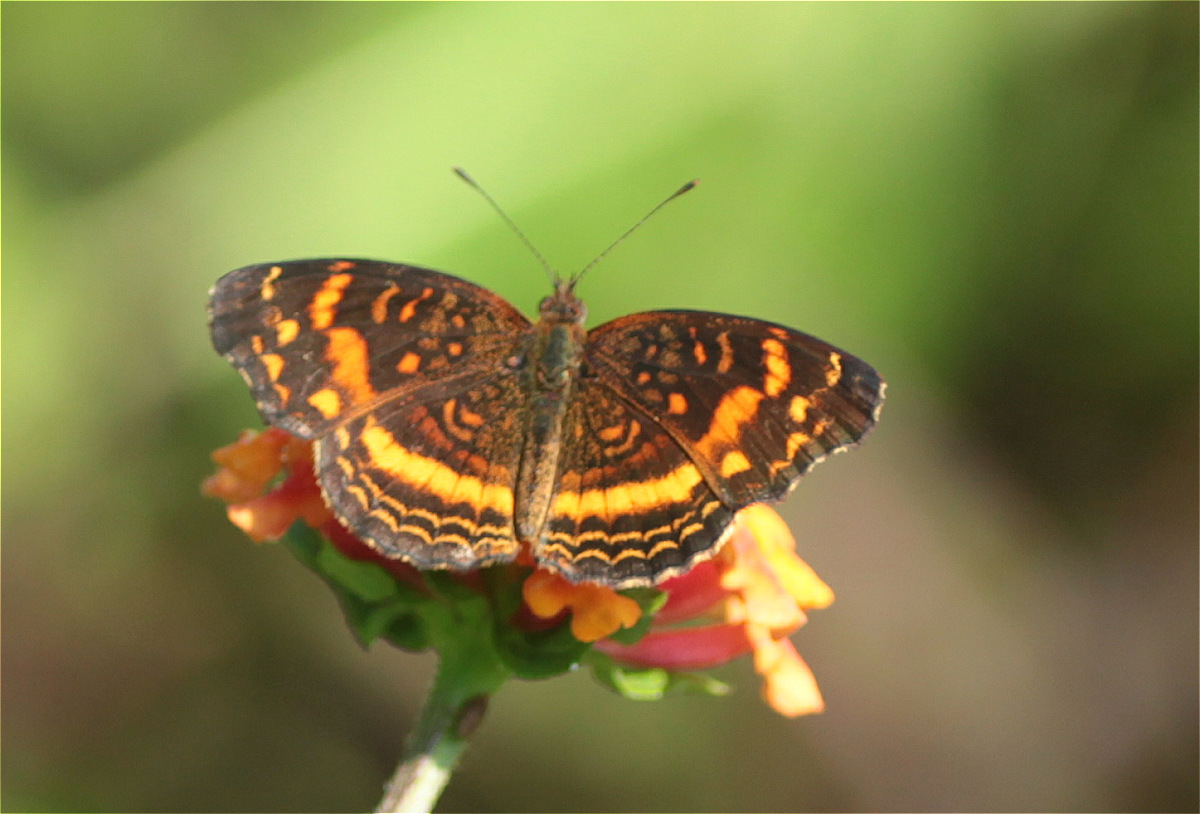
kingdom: Animalia
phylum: Arthropoda
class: Insecta
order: Lepidoptera
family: Nymphalidae
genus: Anthanassa
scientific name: Anthanassa drusilla
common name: Orange-patched crescent
